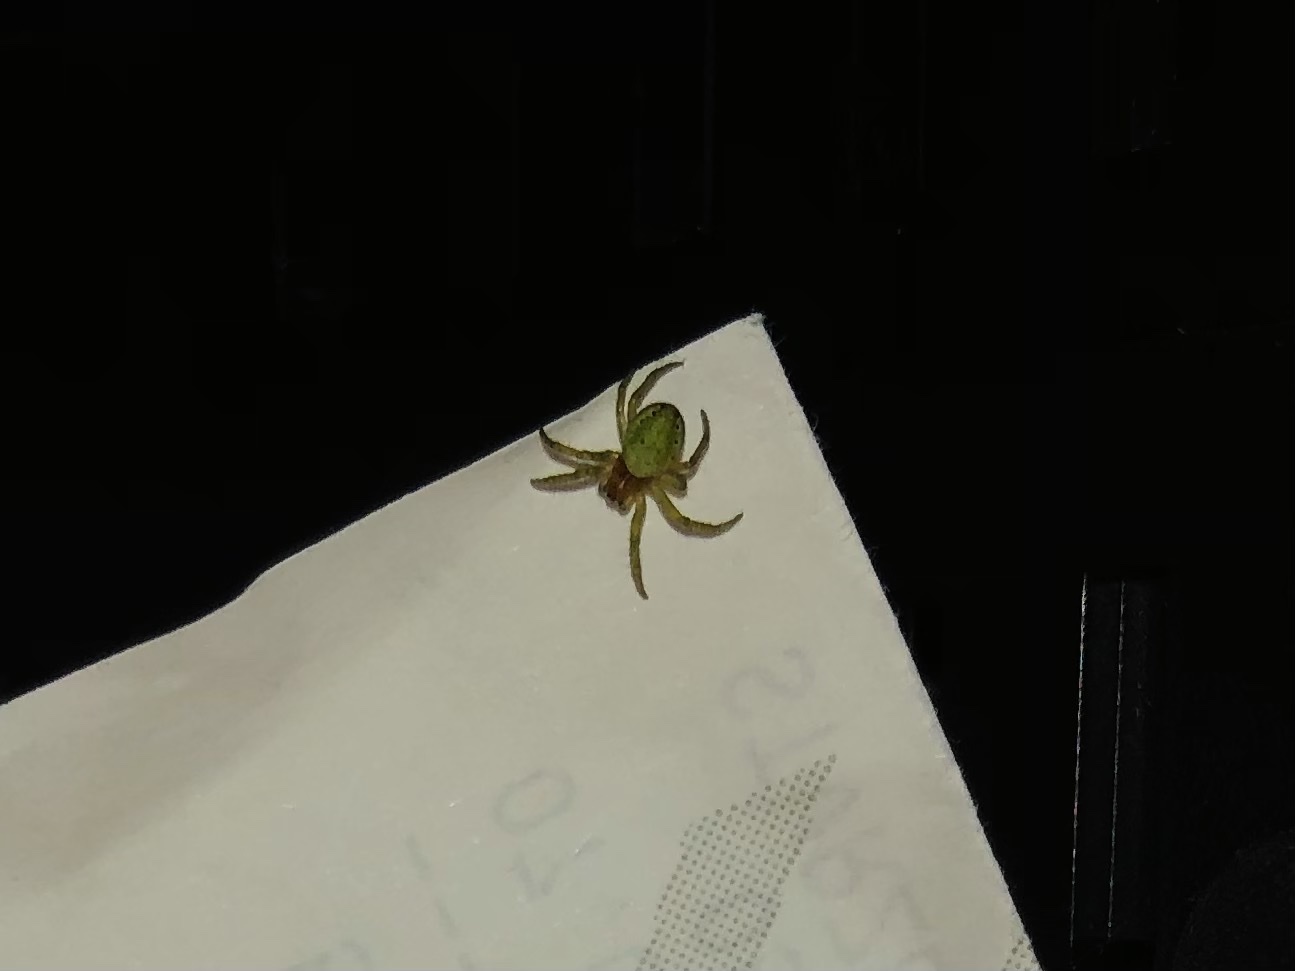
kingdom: Animalia
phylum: Arthropoda
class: Arachnida
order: Araneae
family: Araneidae
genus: Araniella
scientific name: Araniella
